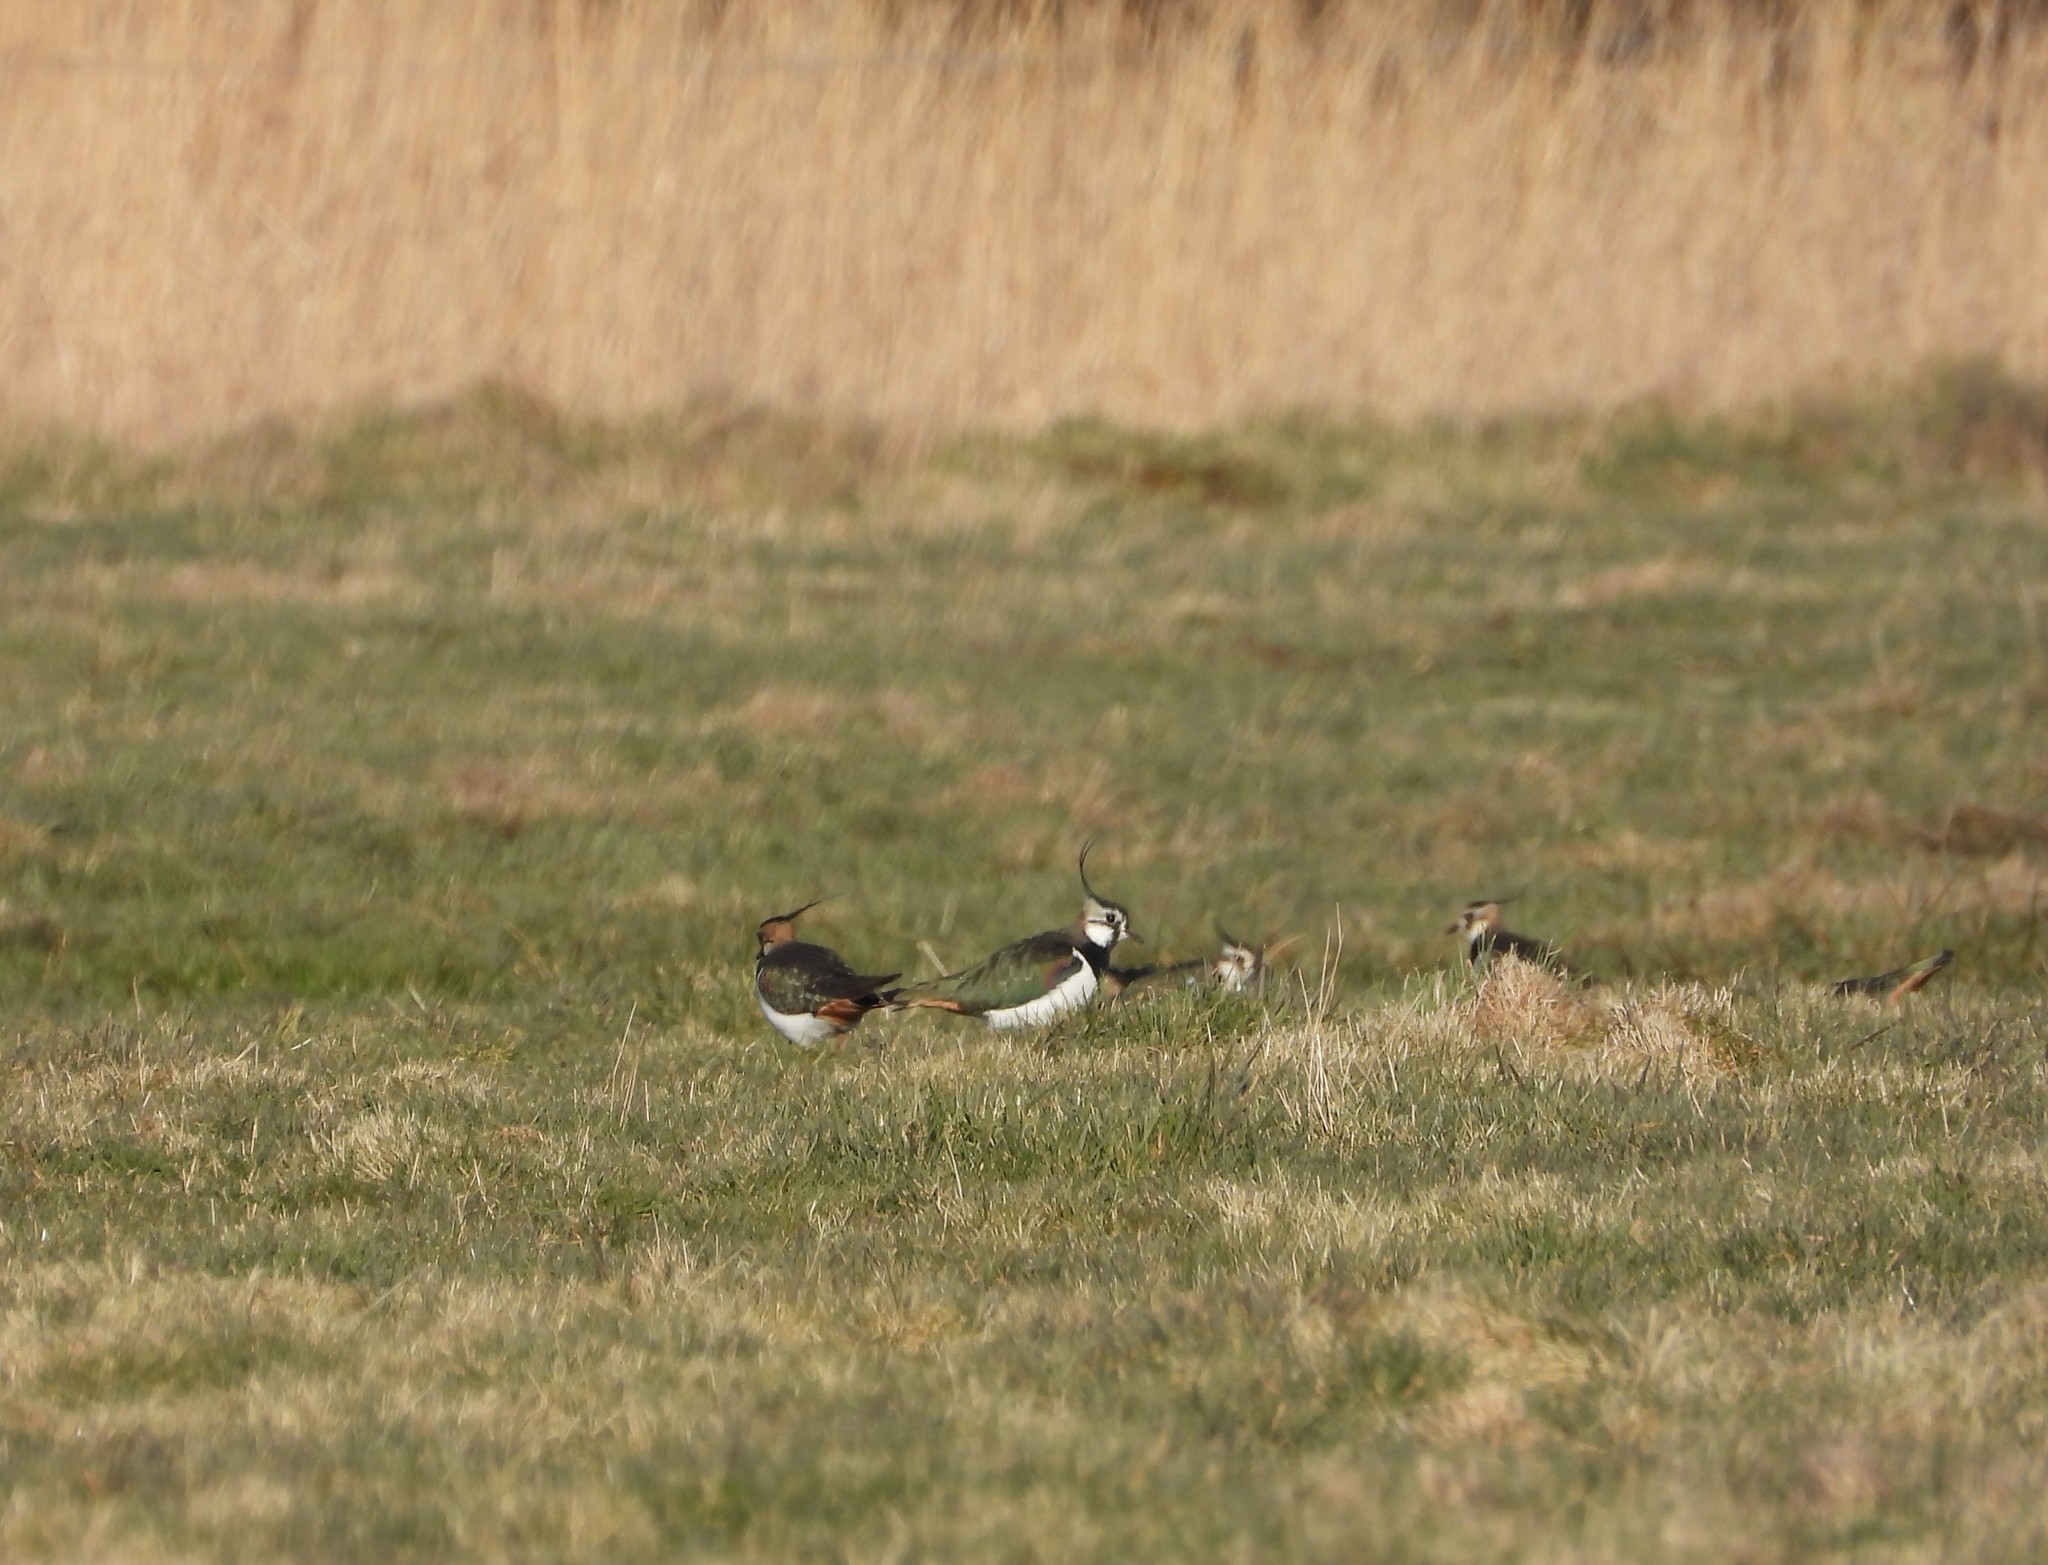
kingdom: Animalia
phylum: Chordata
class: Aves
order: Charadriiformes
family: Charadriidae
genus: Vanellus
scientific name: Vanellus vanellus
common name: Northern lapwing
